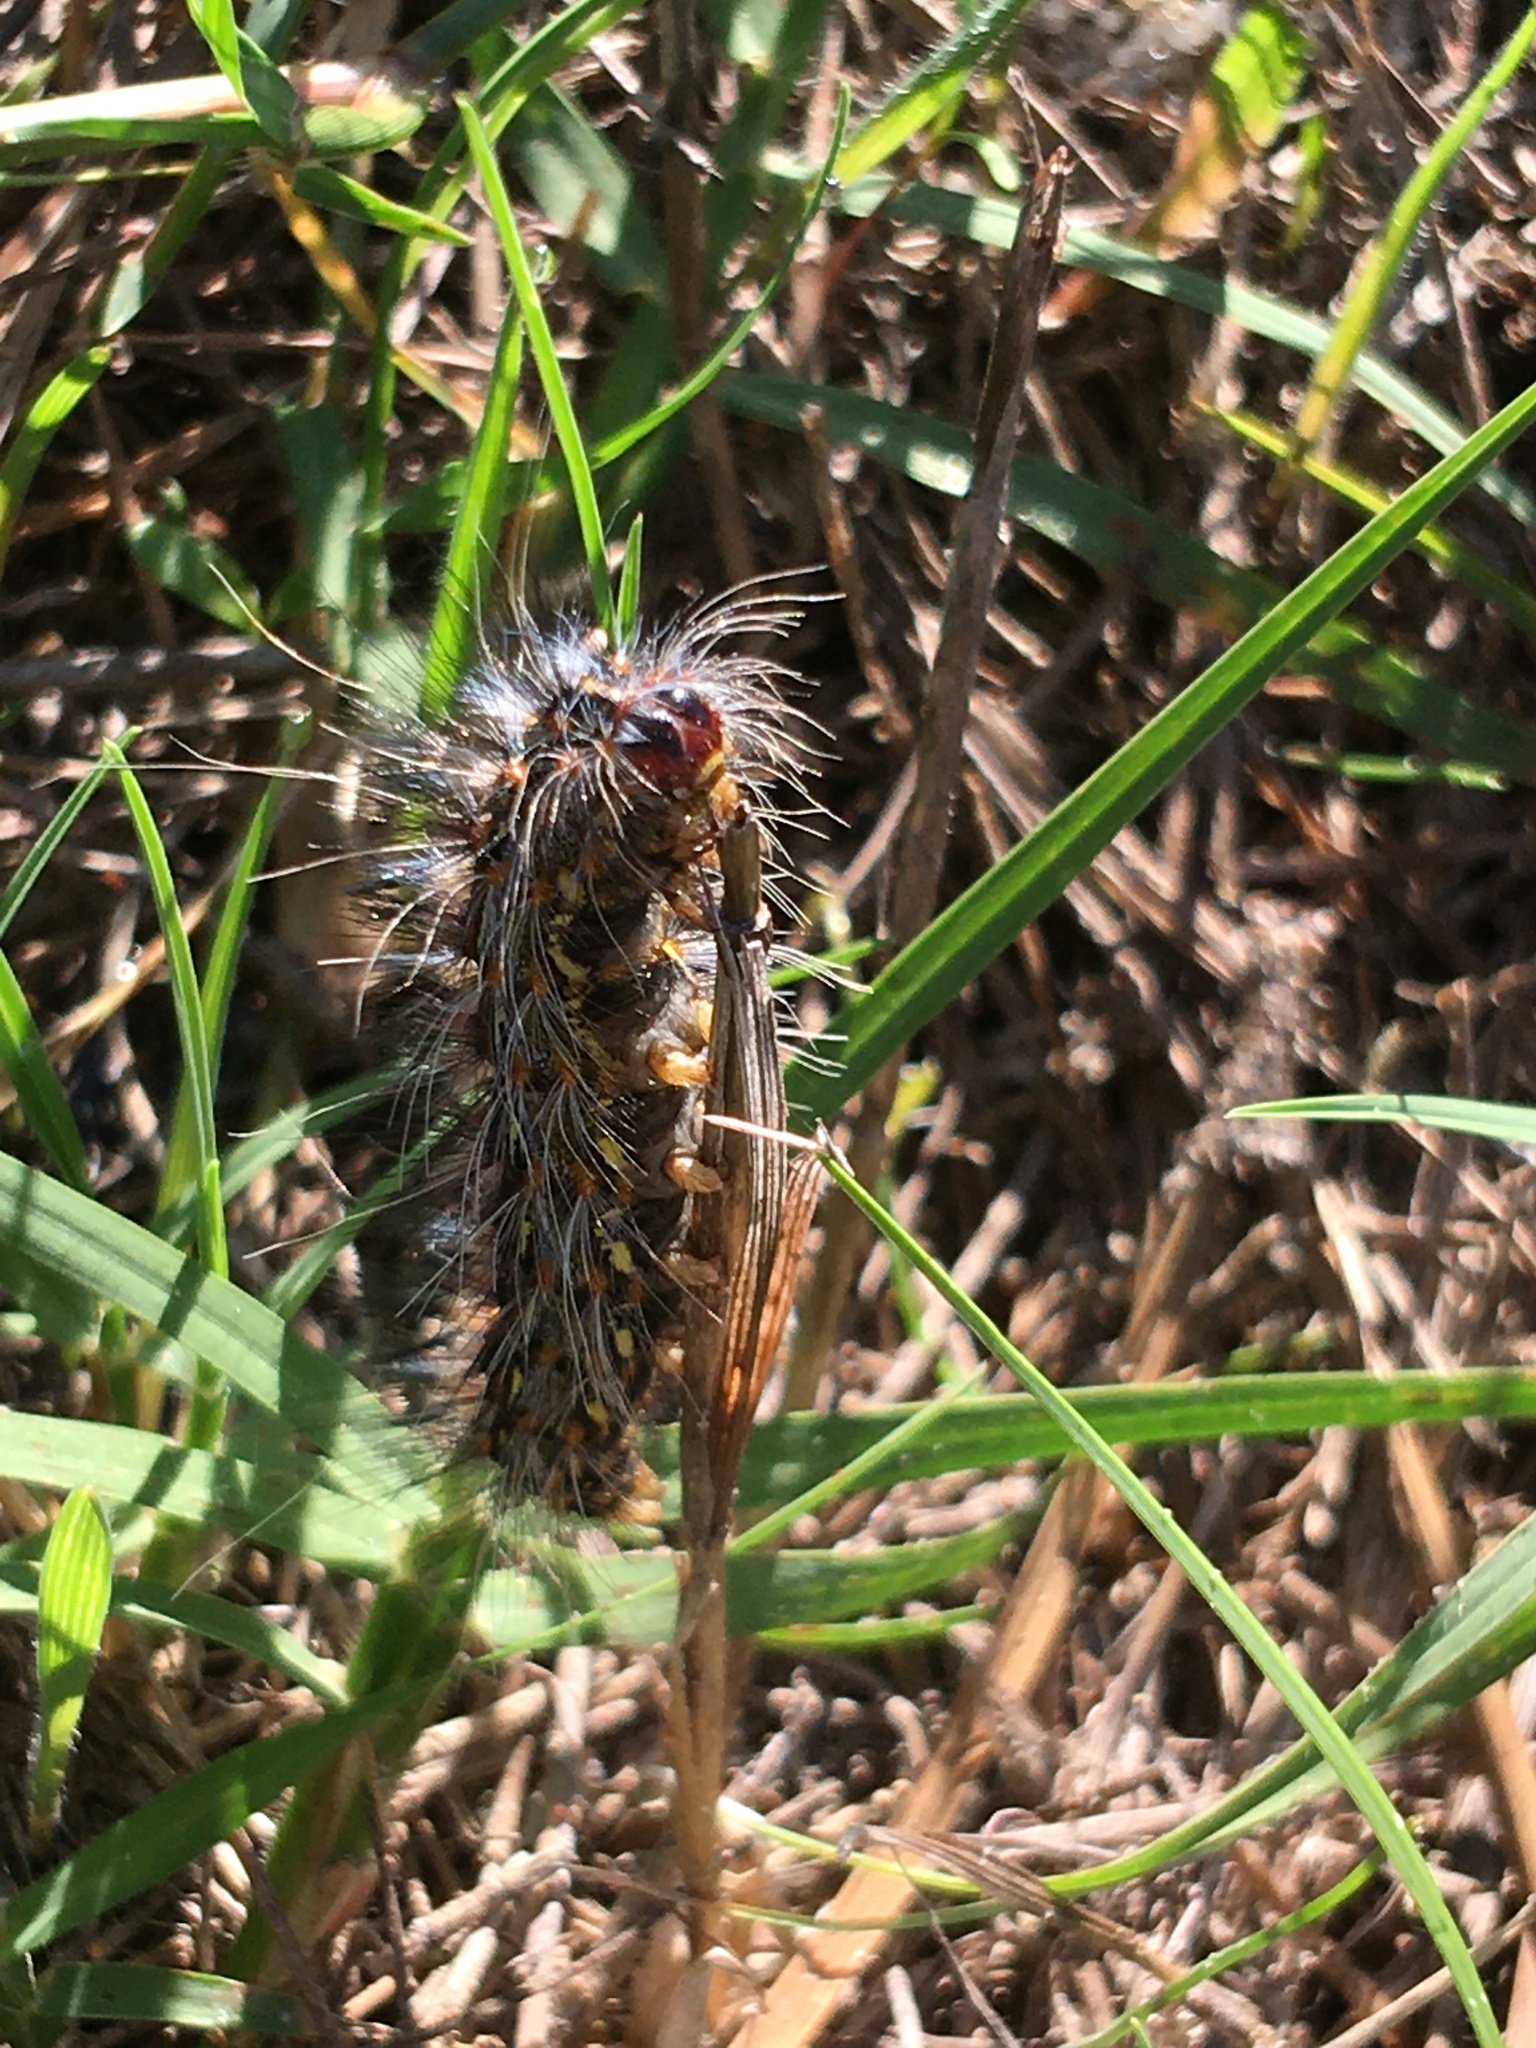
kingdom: Animalia
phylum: Arthropoda
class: Insecta
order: Lepidoptera
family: Erebidae
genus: Paralacydes
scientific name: Paralacydes vocula
